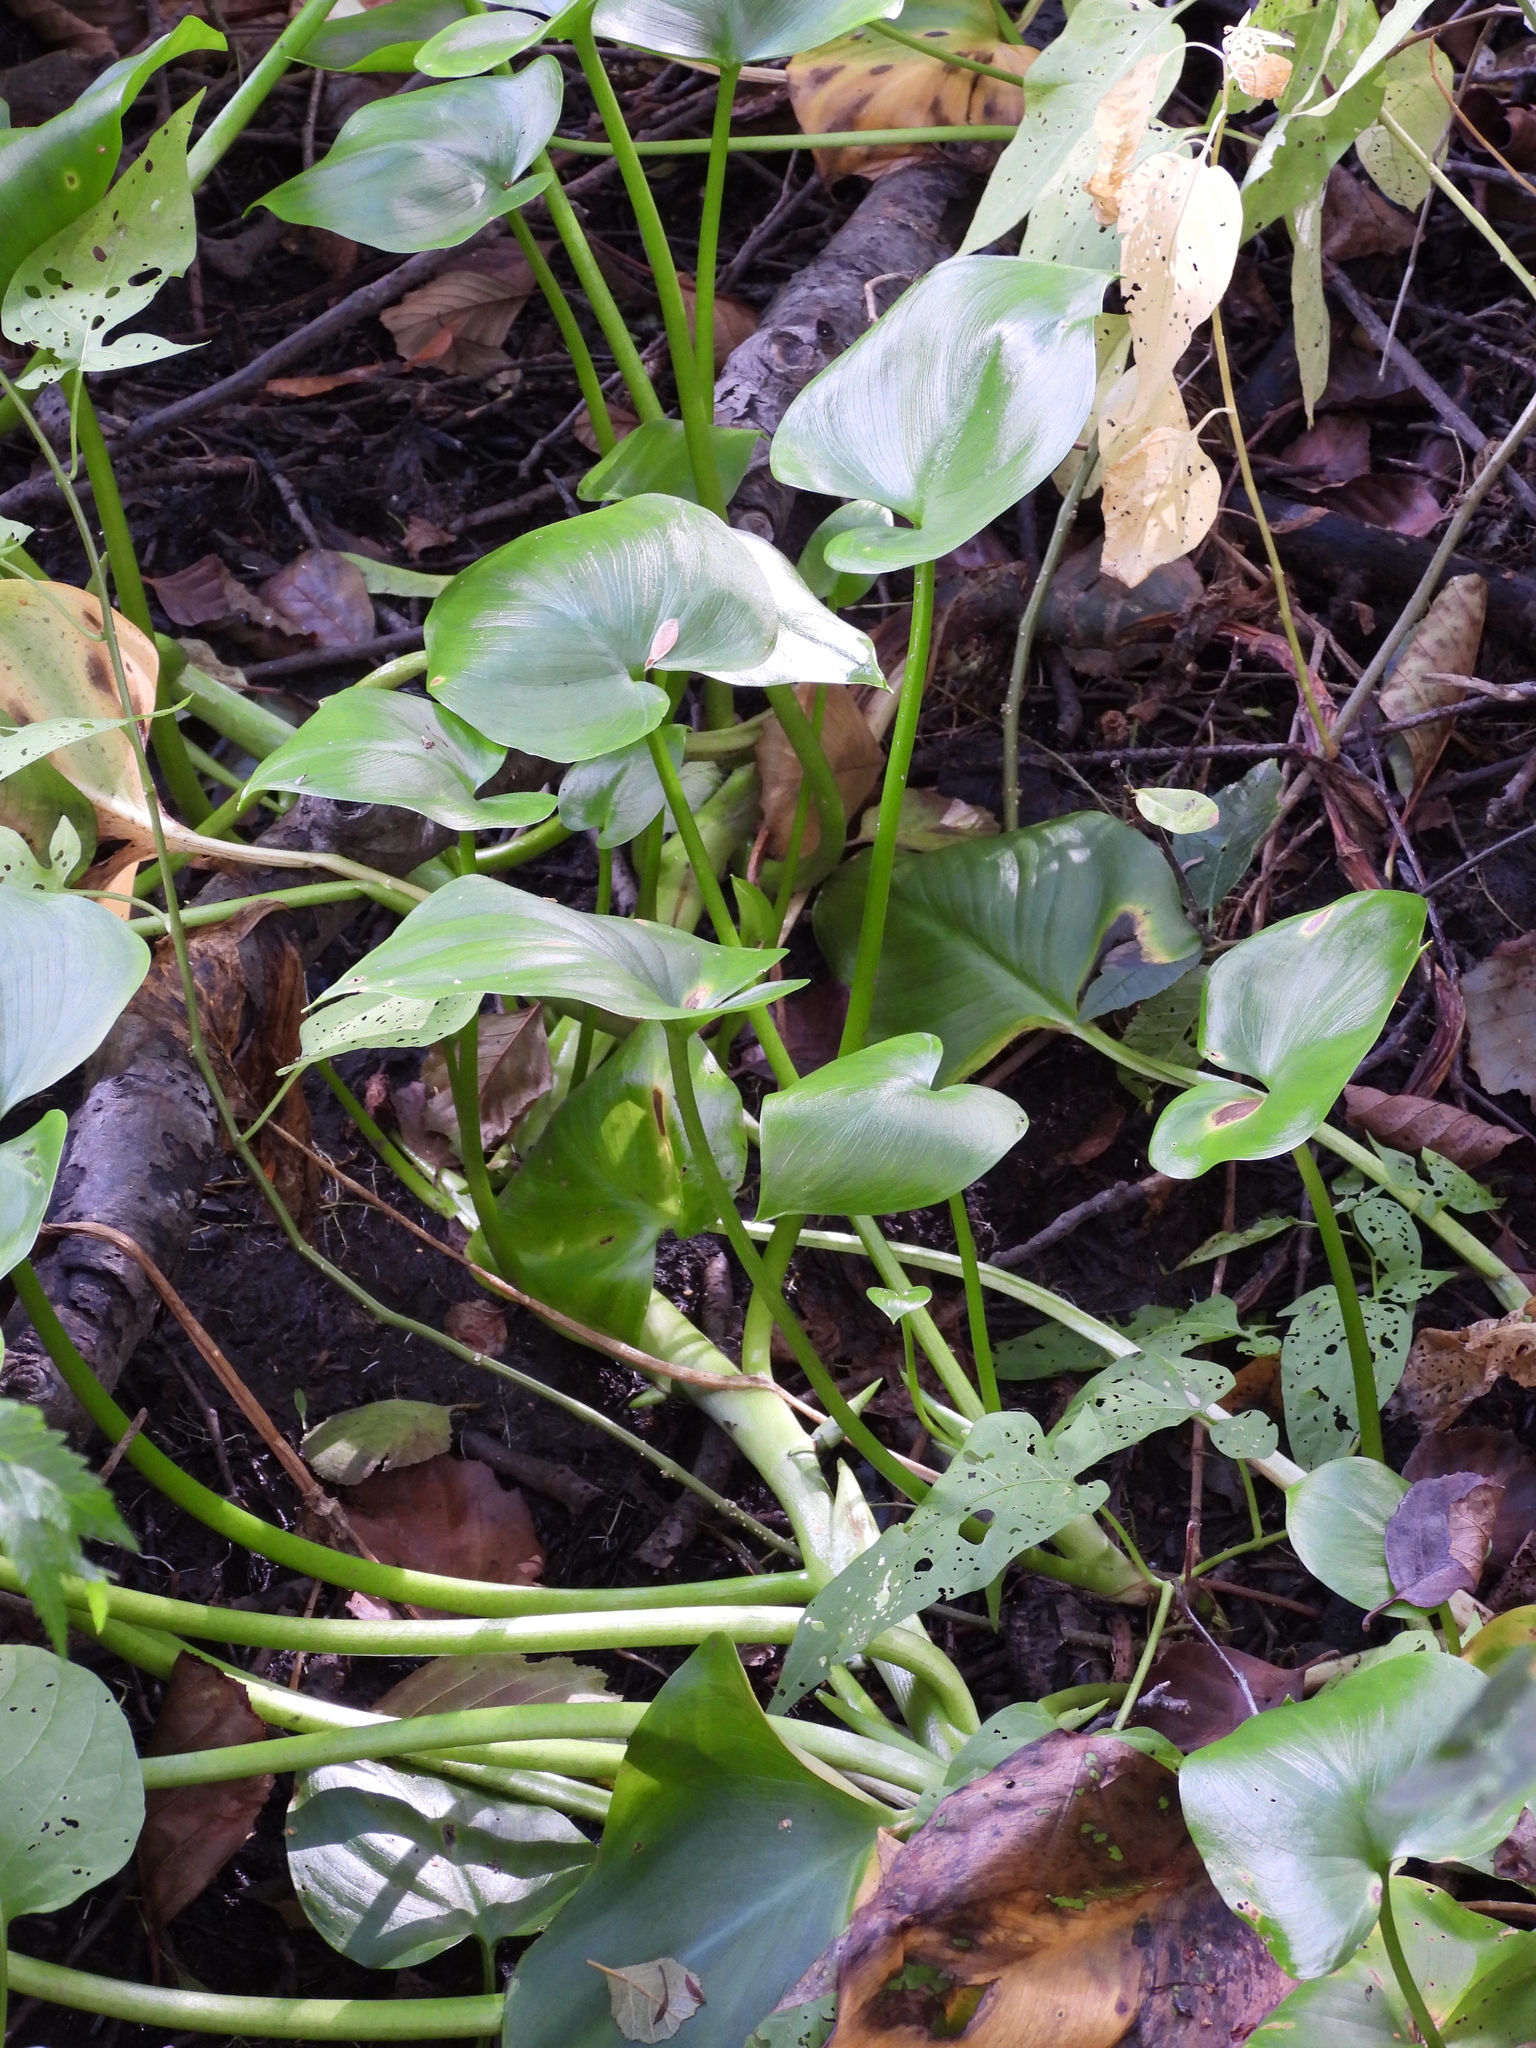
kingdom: Plantae
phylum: Tracheophyta
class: Liliopsida
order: Alismatales
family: Araceae
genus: Calla
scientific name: Calla palustris
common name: Bog arum
